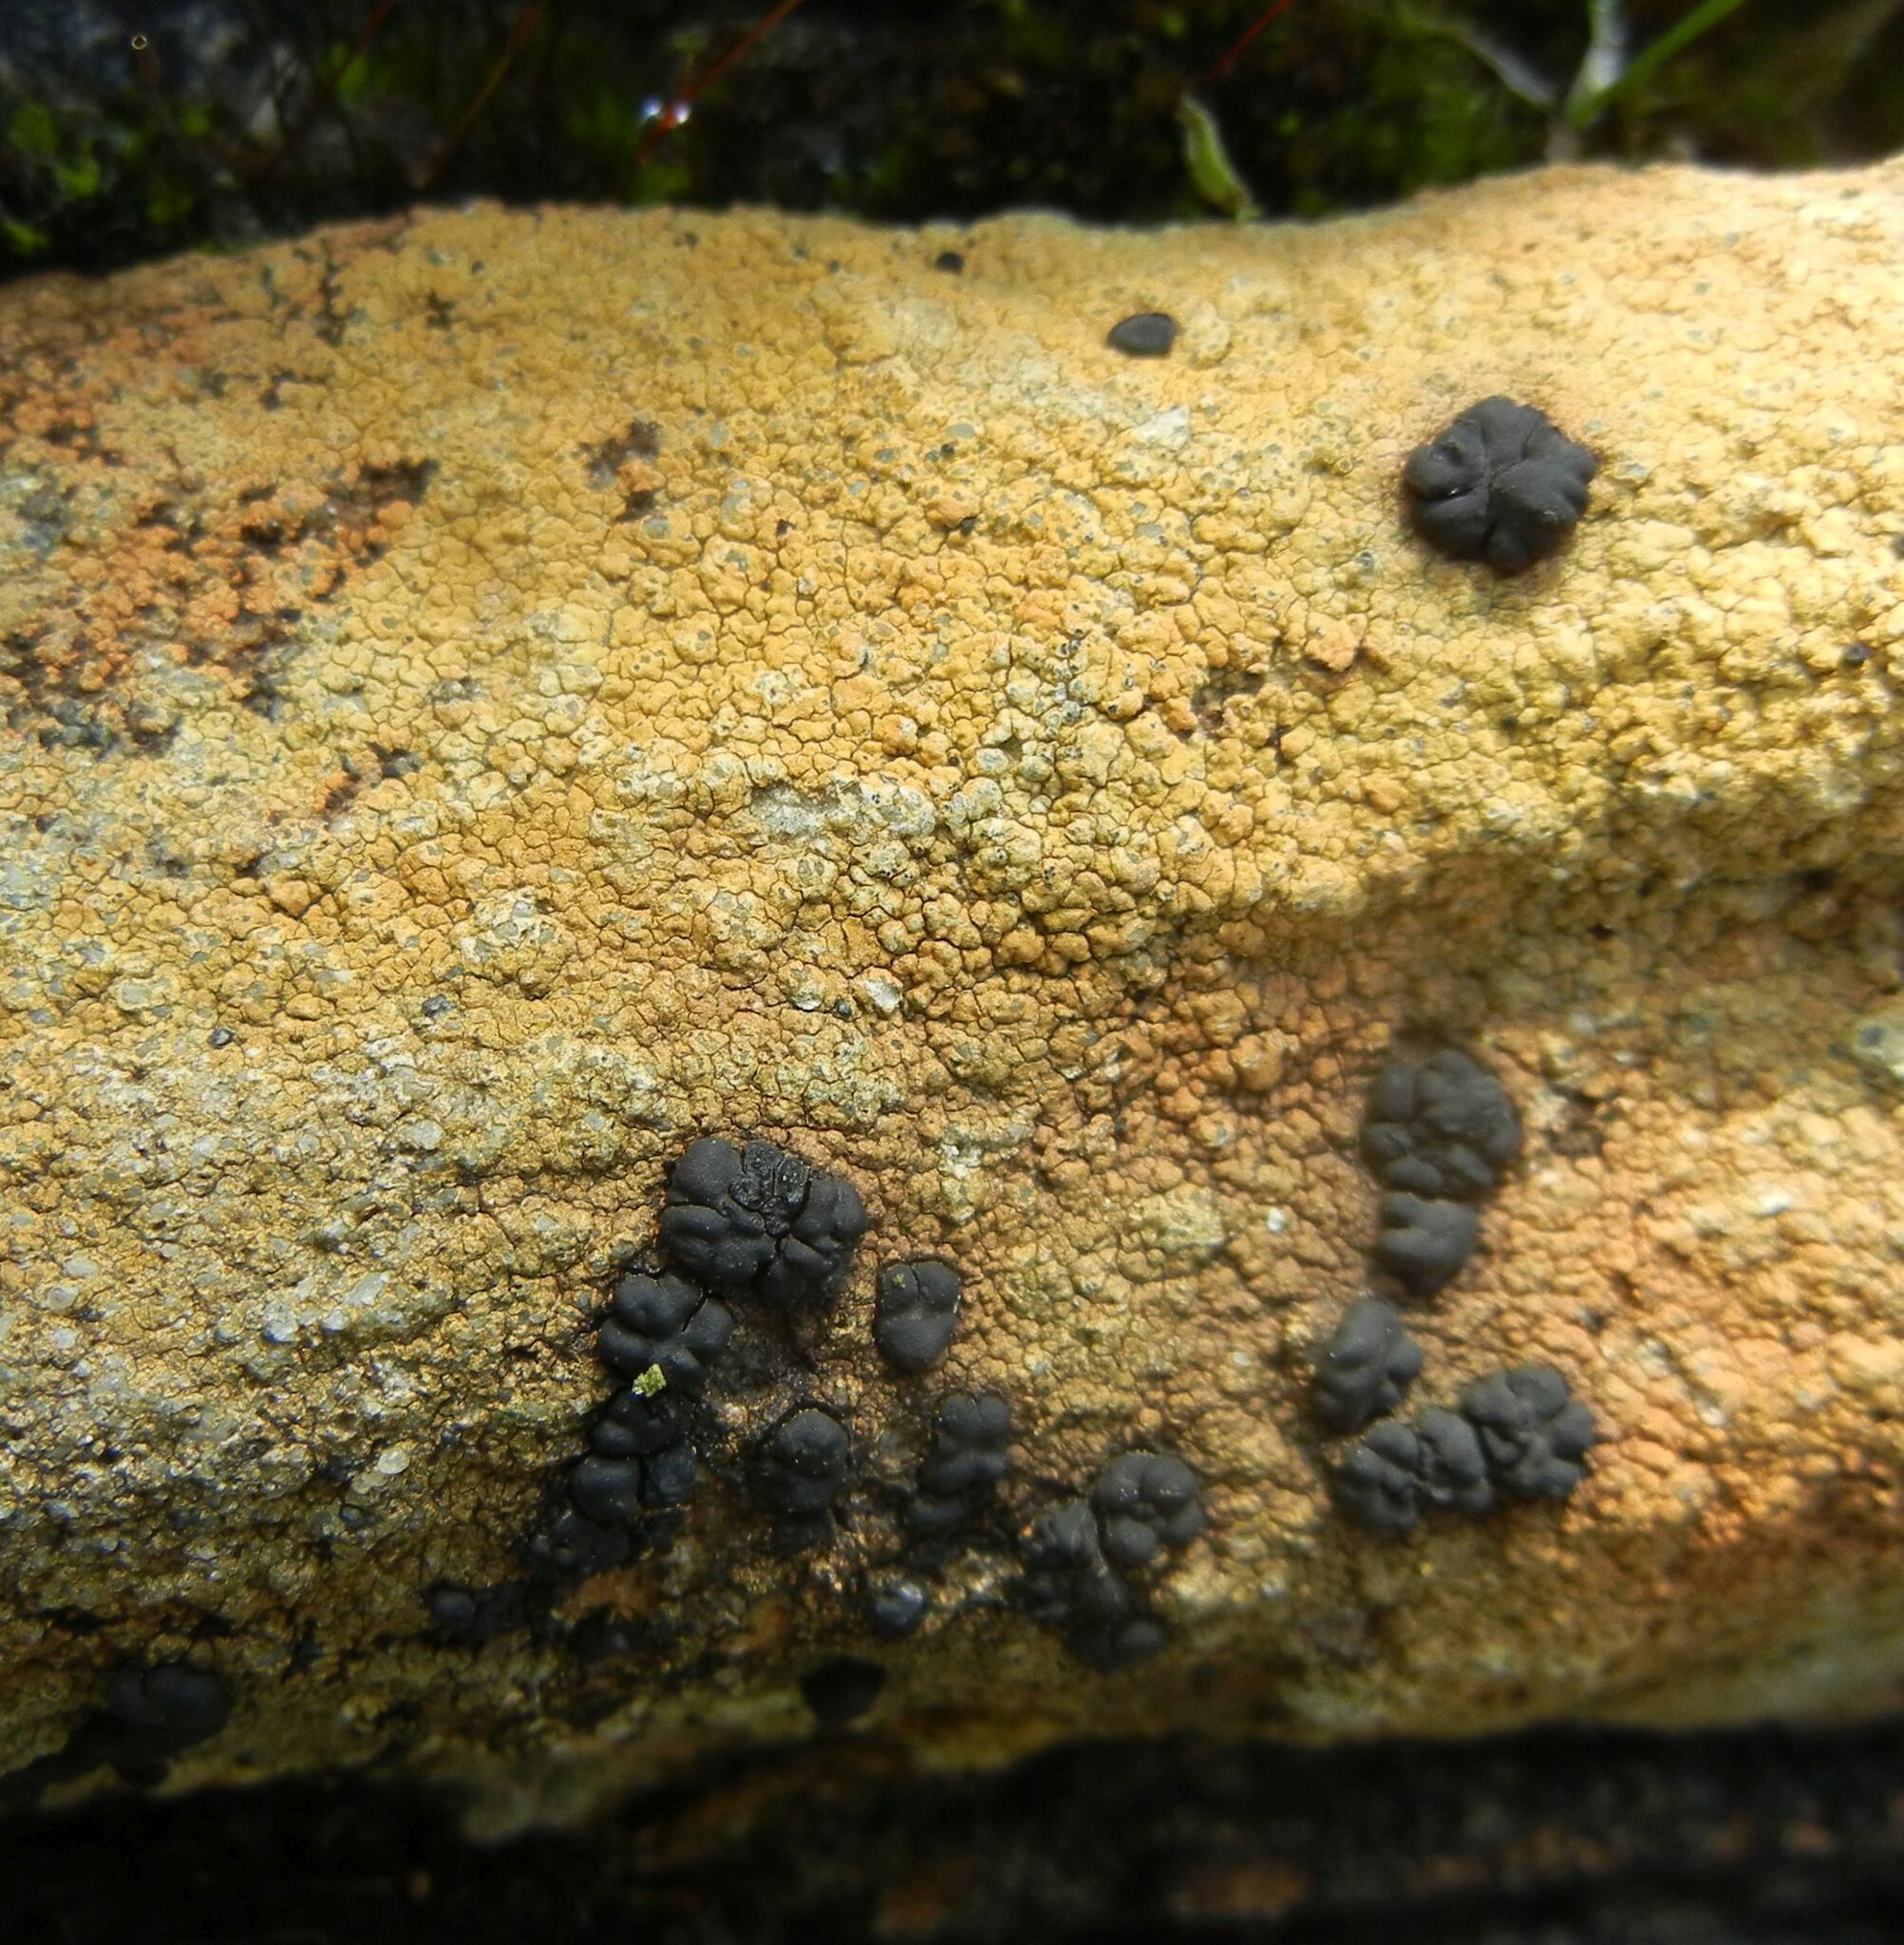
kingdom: Fungi
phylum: Ascomycota
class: Lecanoromycetes
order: Lecideales
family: Lecideaceae
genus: Porpidia
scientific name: Porpidia macrocarpa
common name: Common boulder lichen
